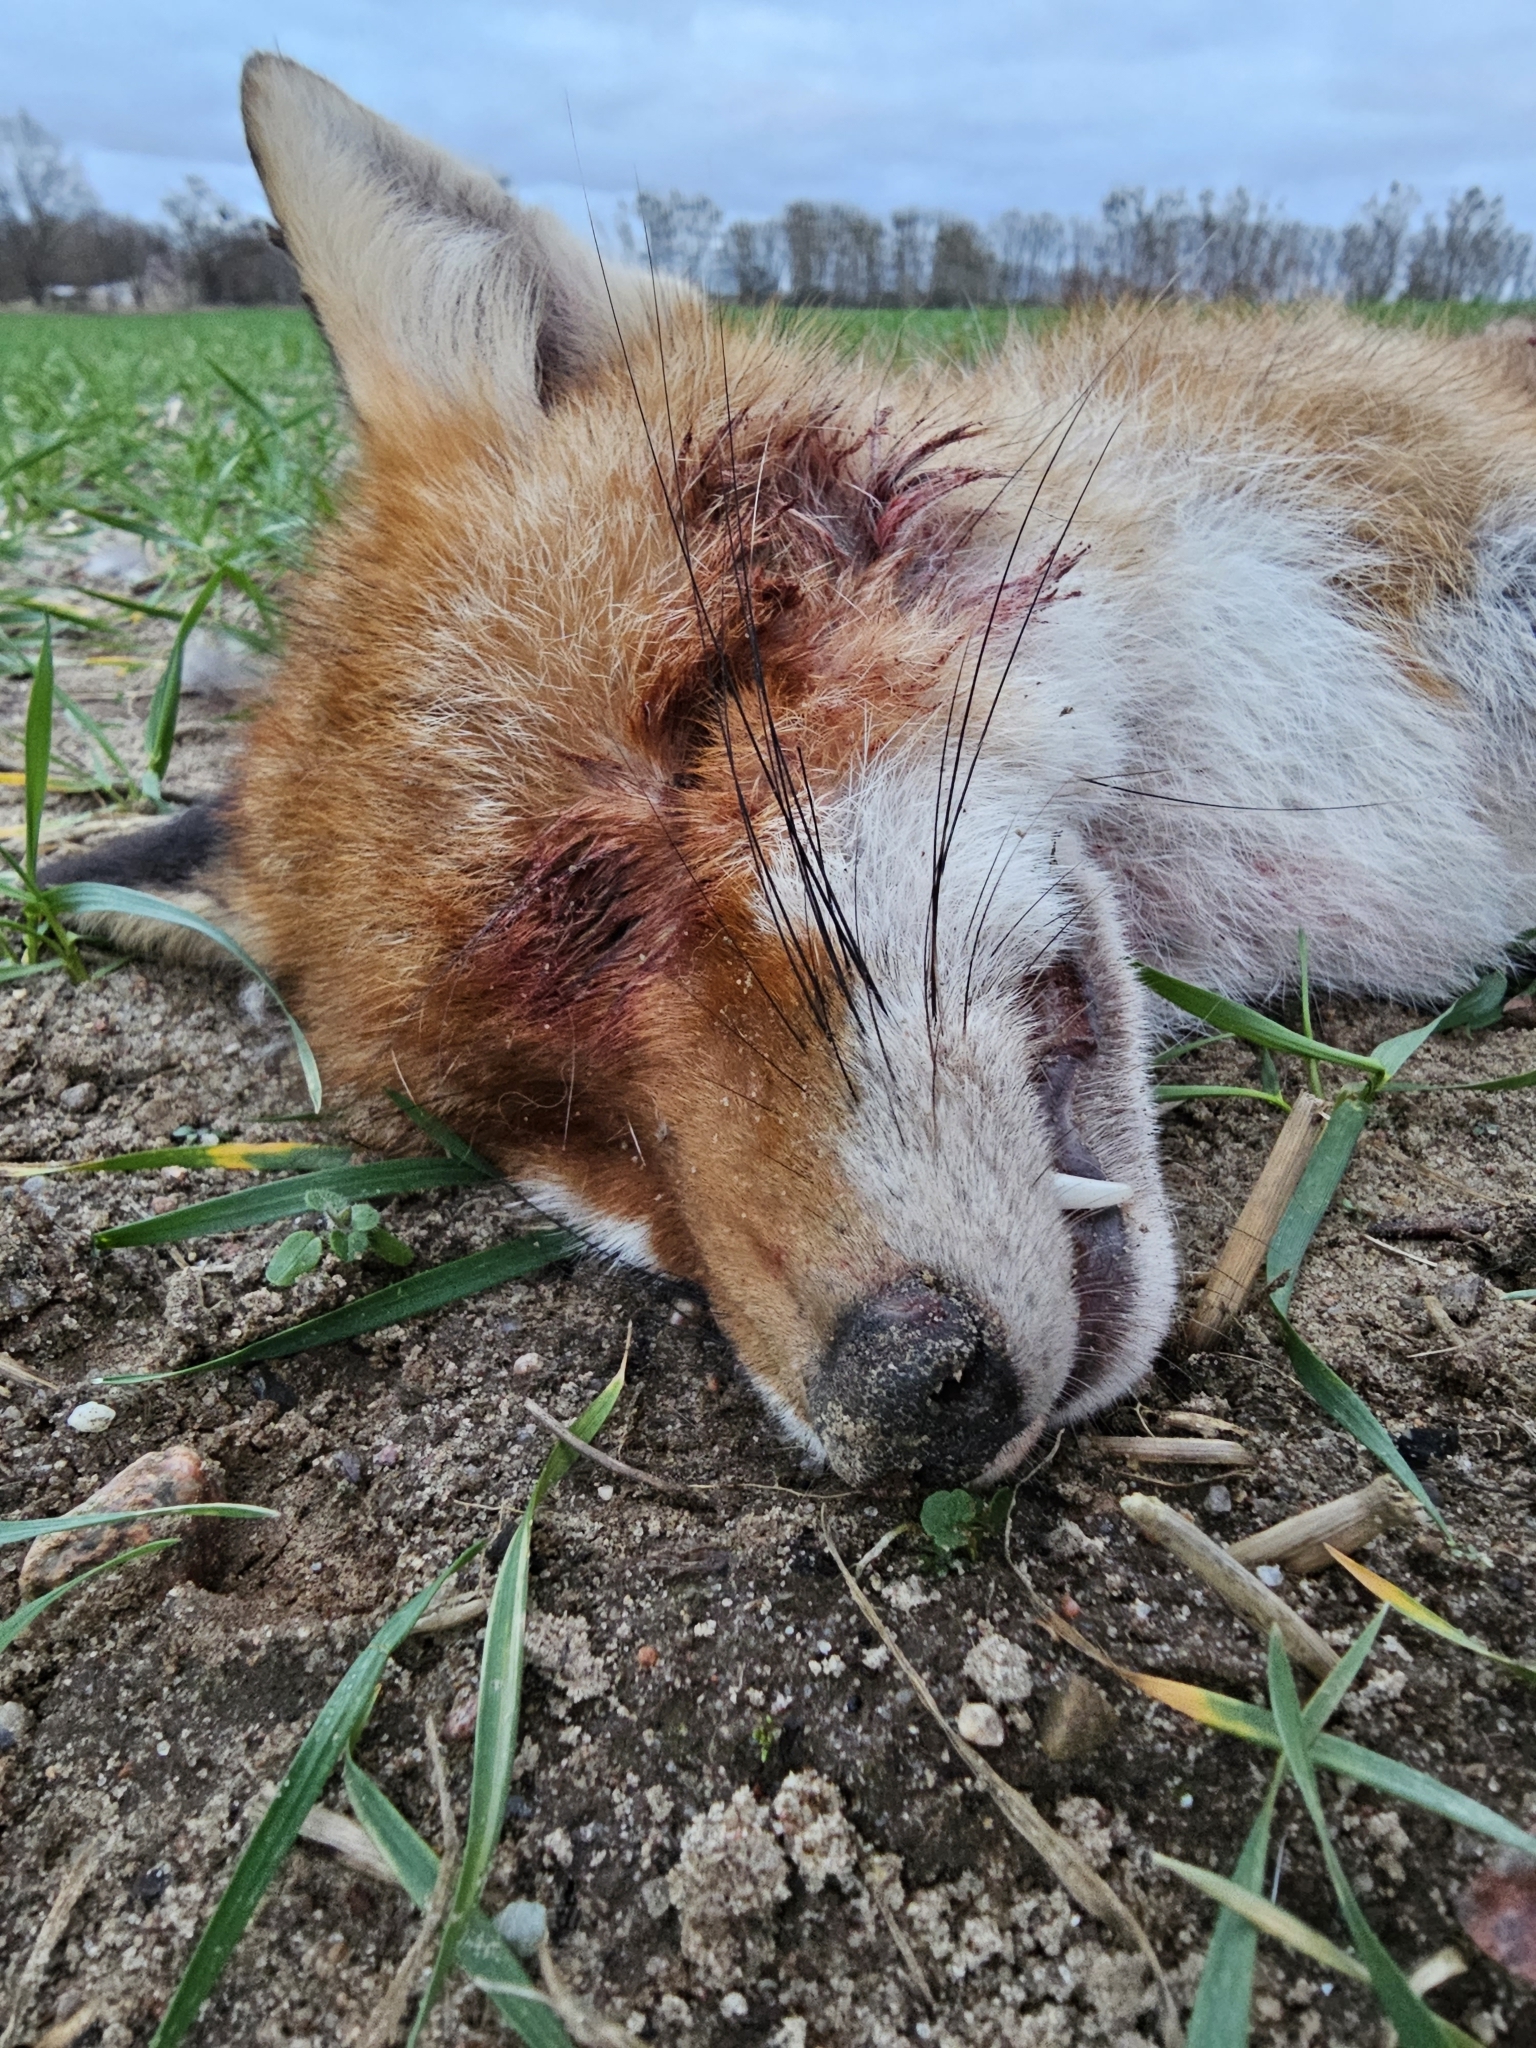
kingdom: Animalia
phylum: Chordata
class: Mammalia
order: Carnivora
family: Canidae
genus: Vulpes
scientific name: Vulpes vulpes
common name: Red fox
